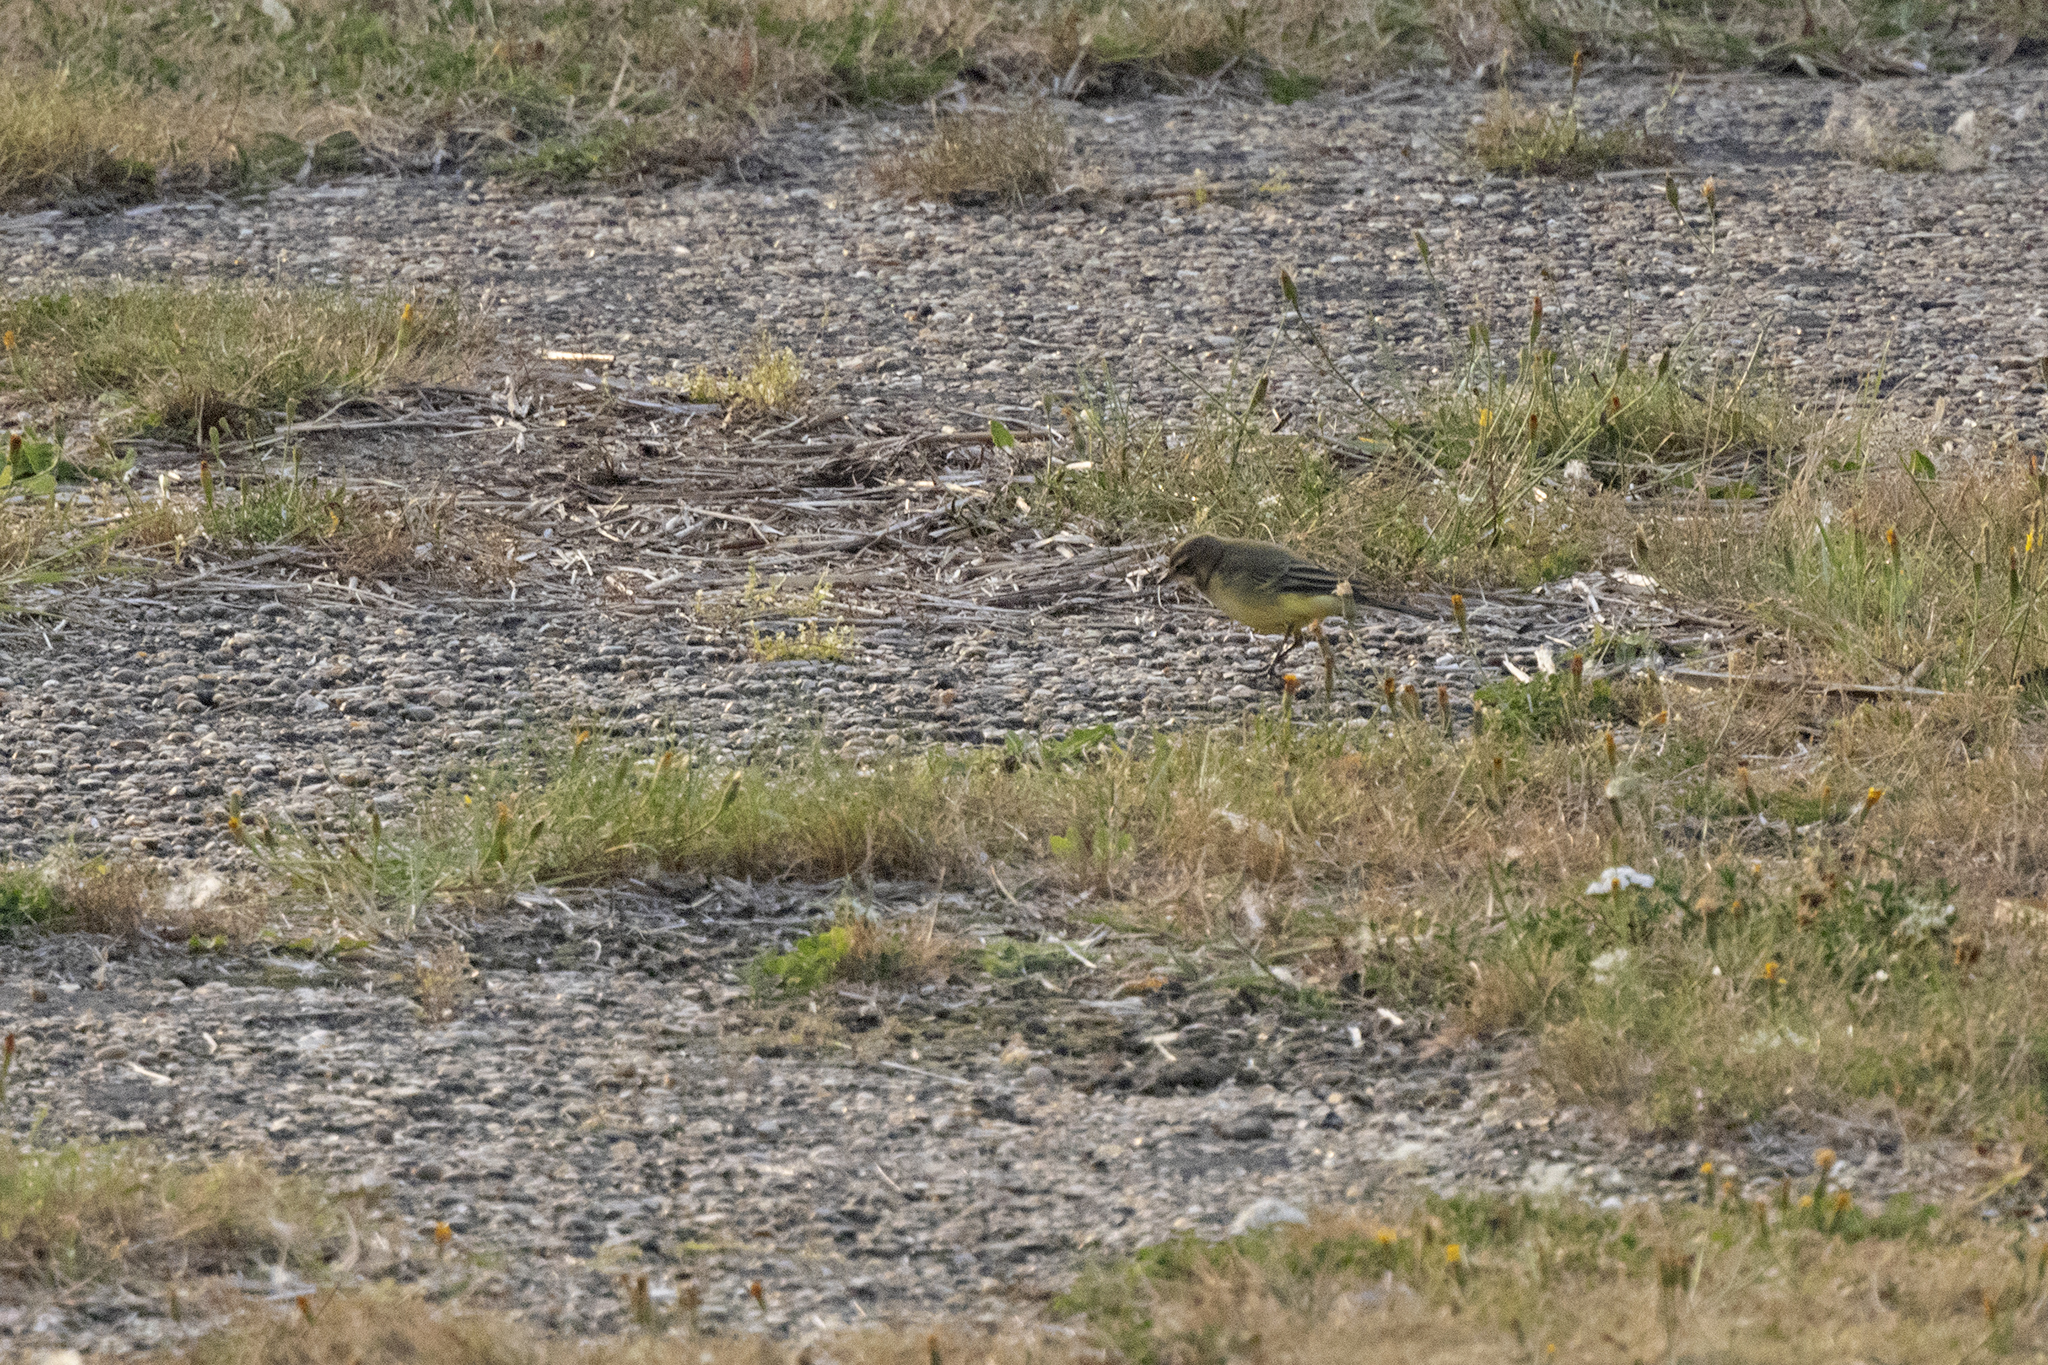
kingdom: Animalia
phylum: Chordata
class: Aves
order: Passeriformes
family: Motacillidae
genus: Motacilla
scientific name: Motacilla cinerea
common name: Grey wagtail
